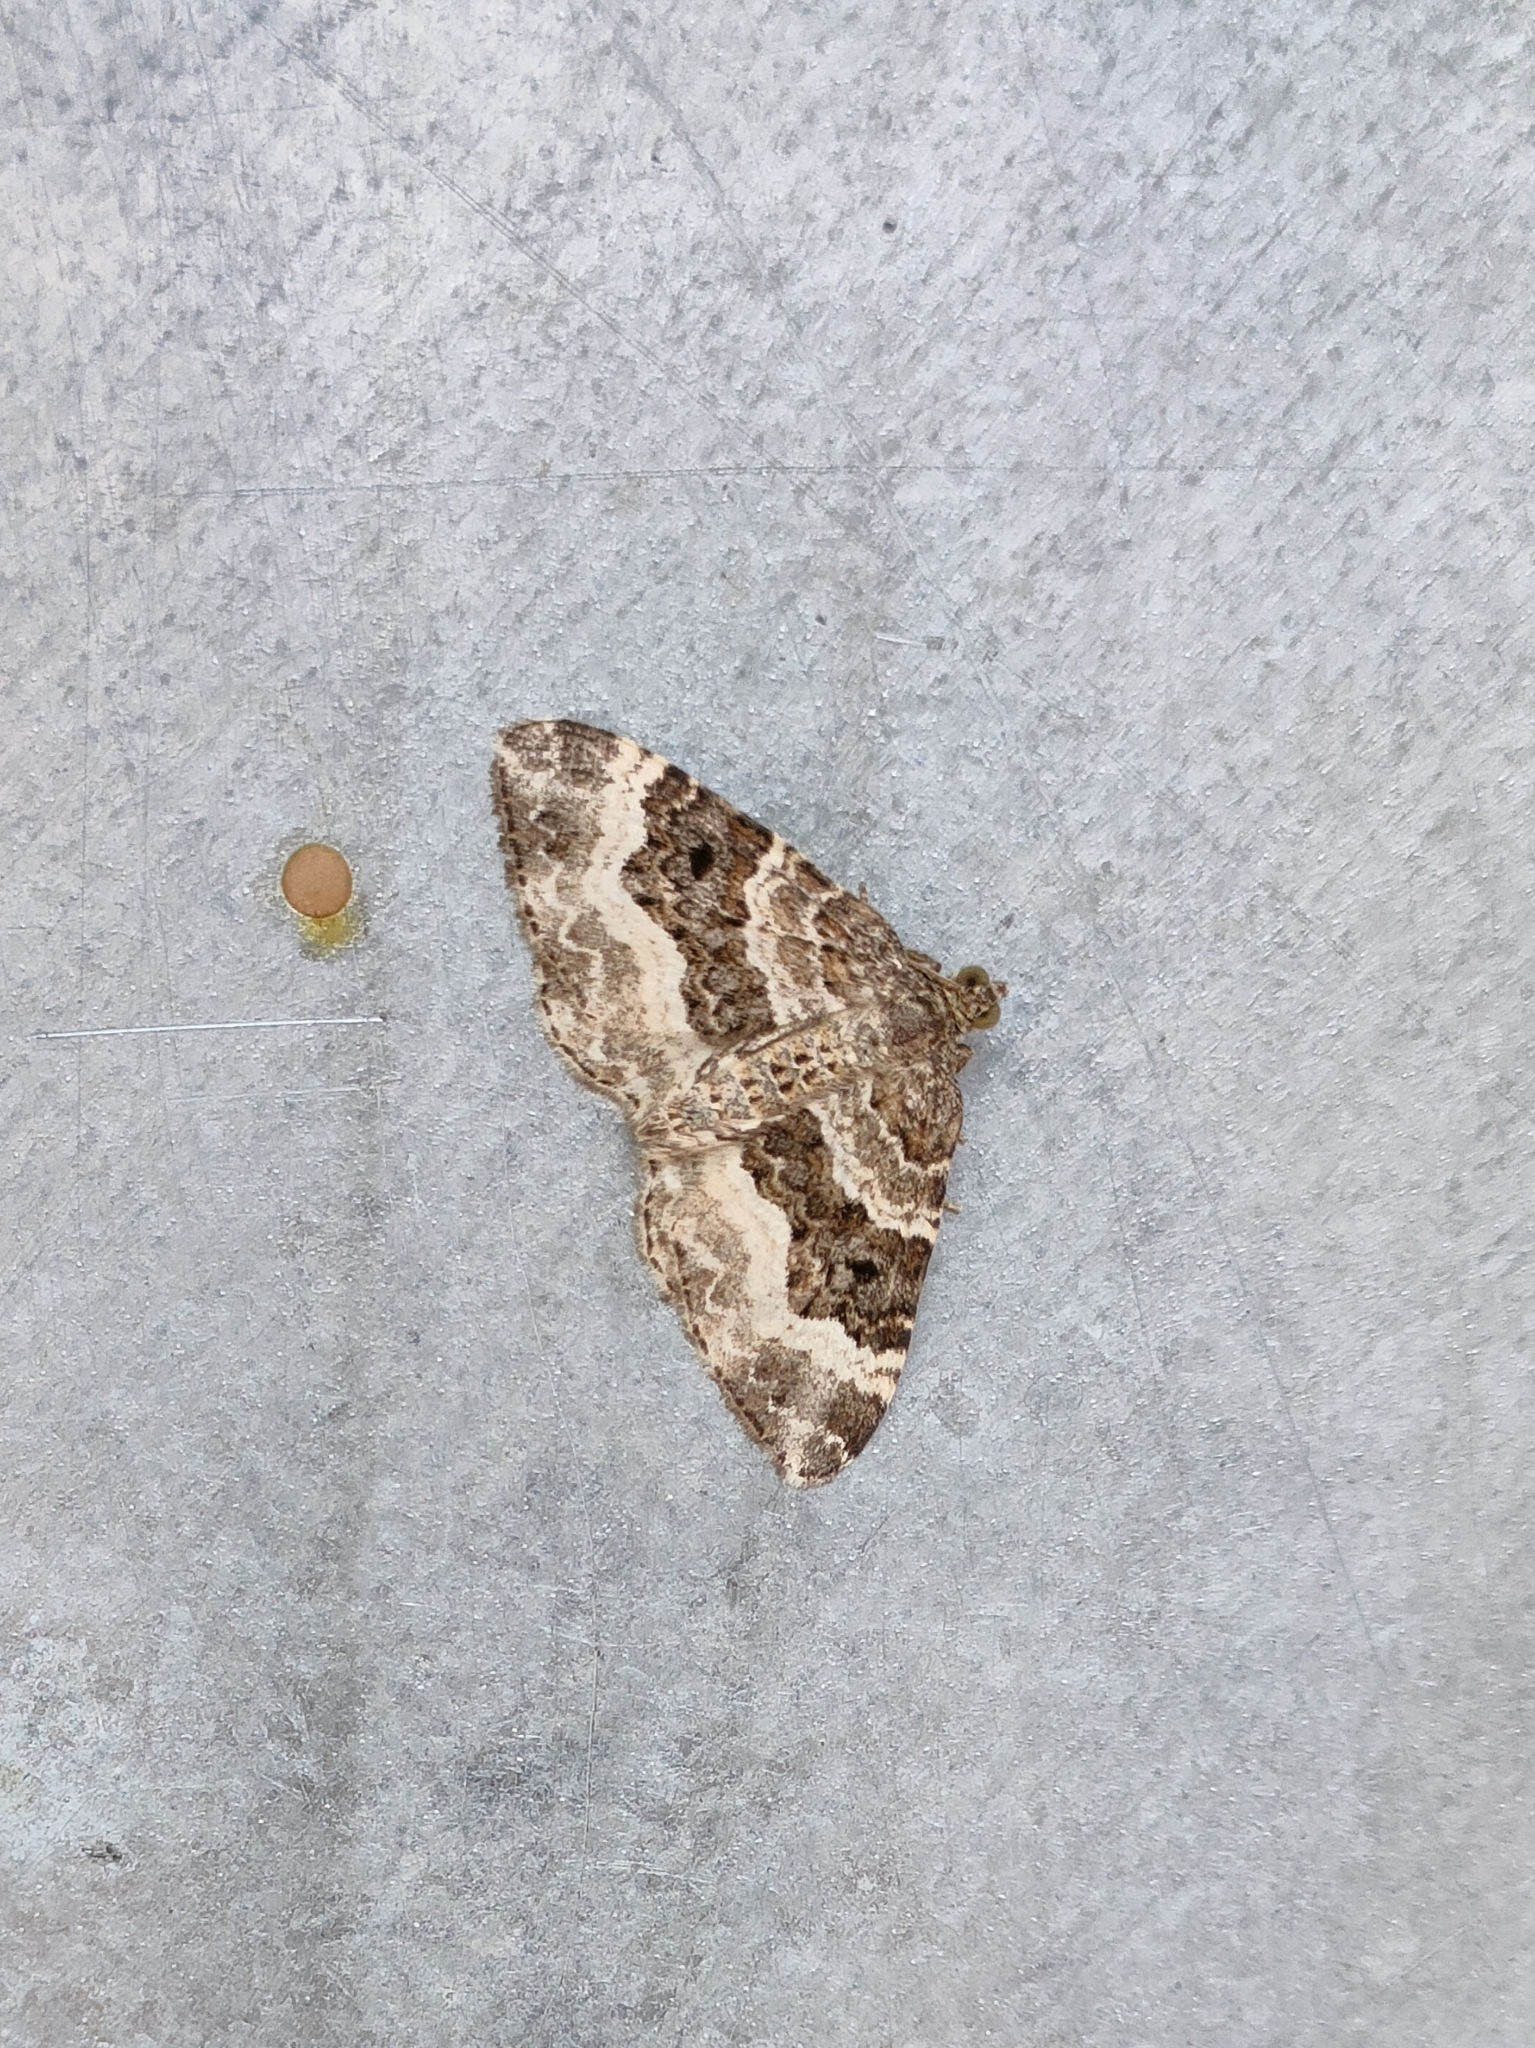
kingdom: Animalia
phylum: Arthropoda
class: Insecta
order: Lepidoptera
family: Geometridae
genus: Epirrhoe
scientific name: Epirrhoe alternata
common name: Common carpet
